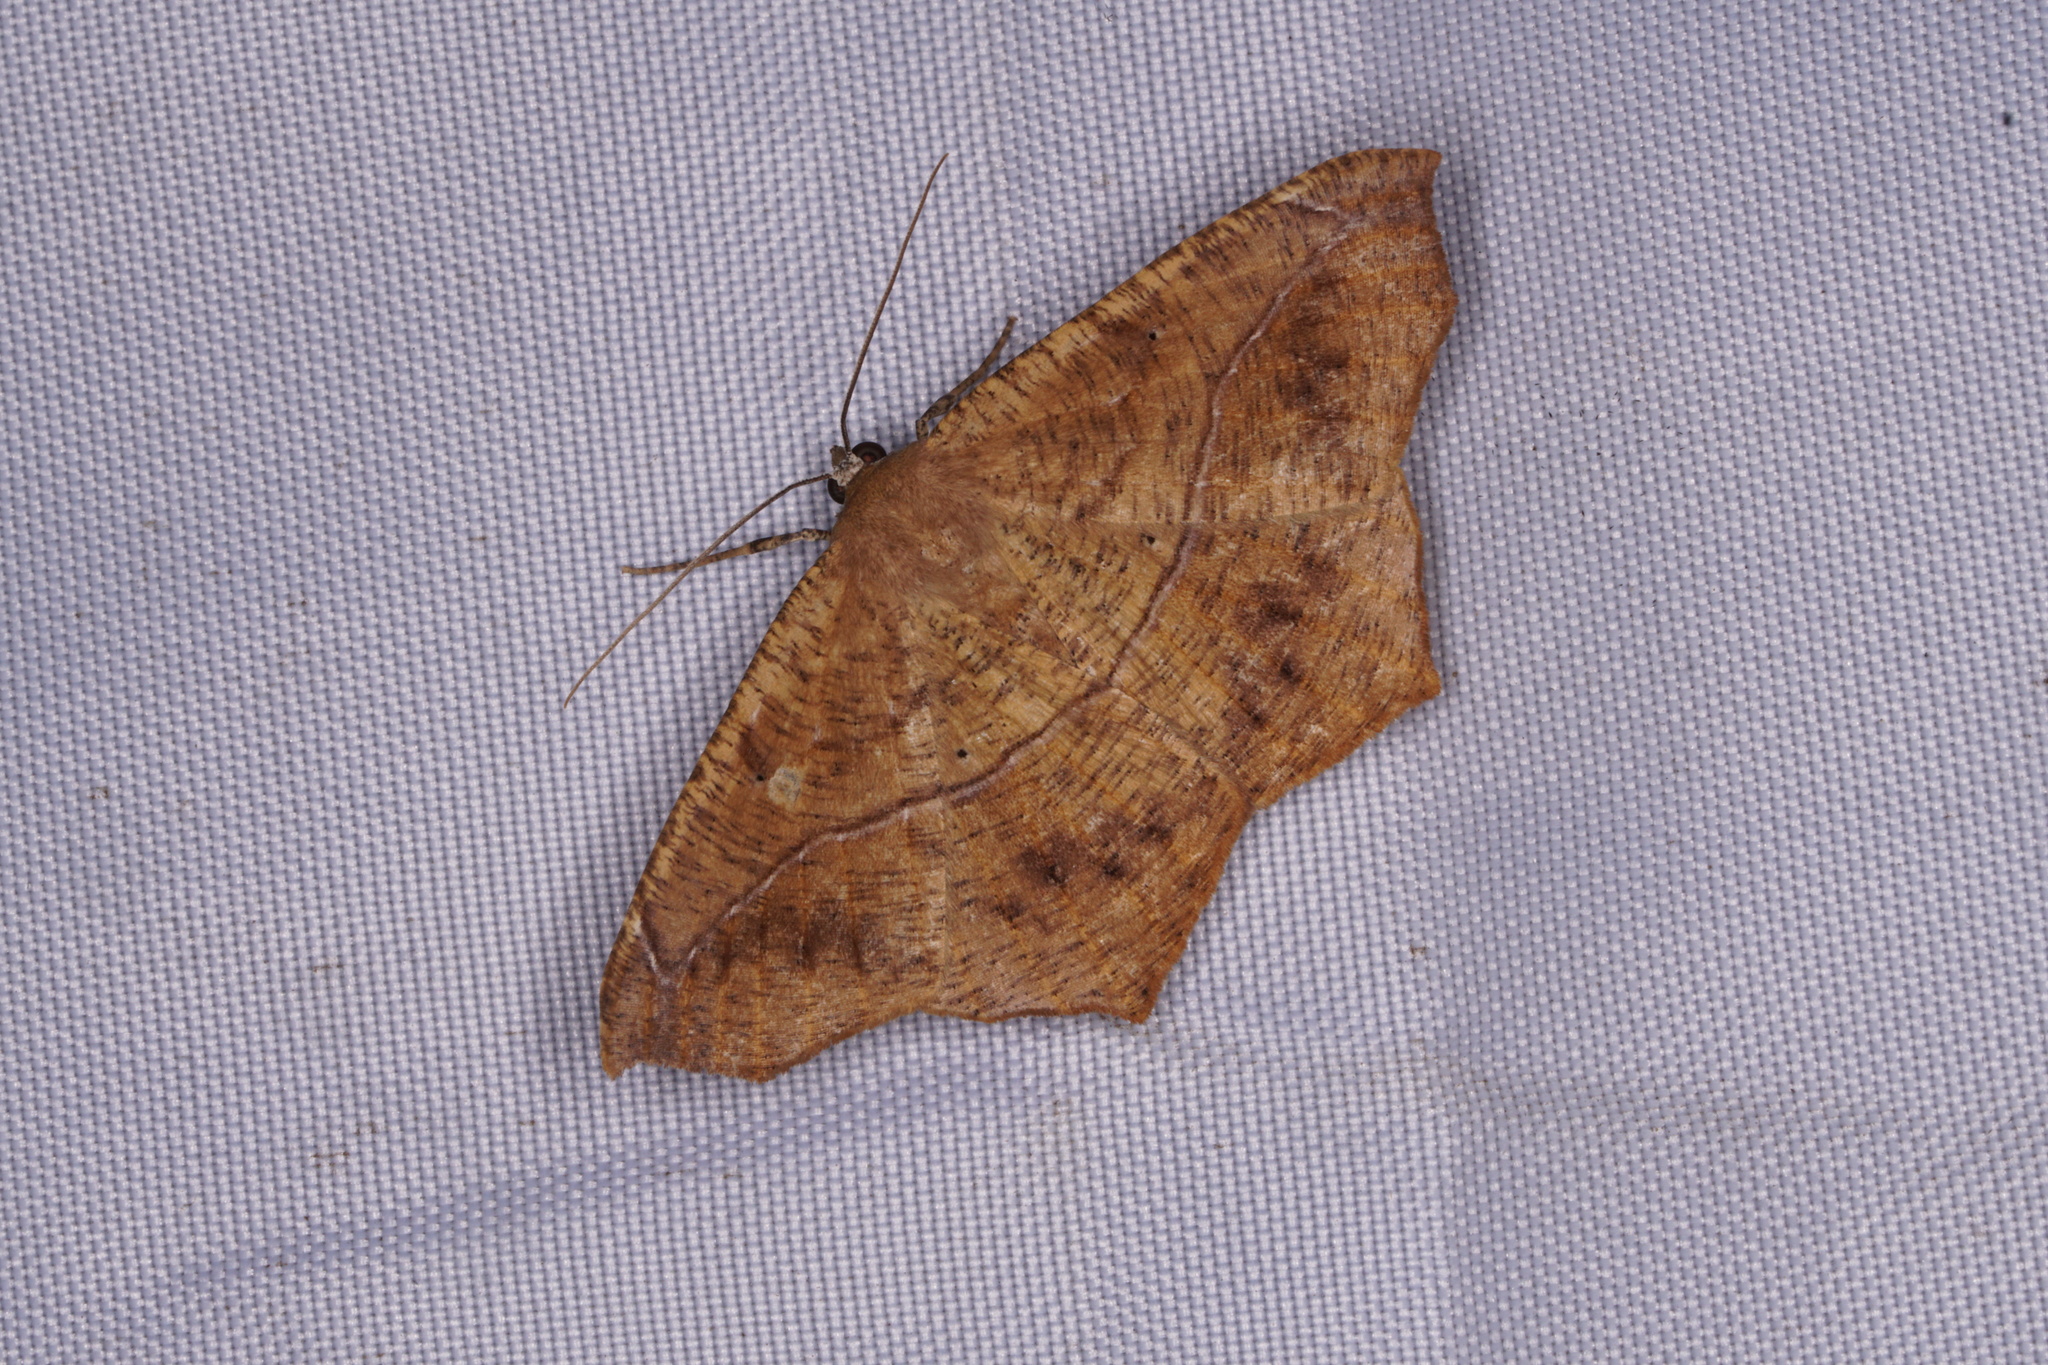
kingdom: Animalia
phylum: Arthropoda
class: Insecta
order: Lepidoptera
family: Geometridae
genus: Prochoerodes
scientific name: Prochoerodes lineola
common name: Large maple spanworm
